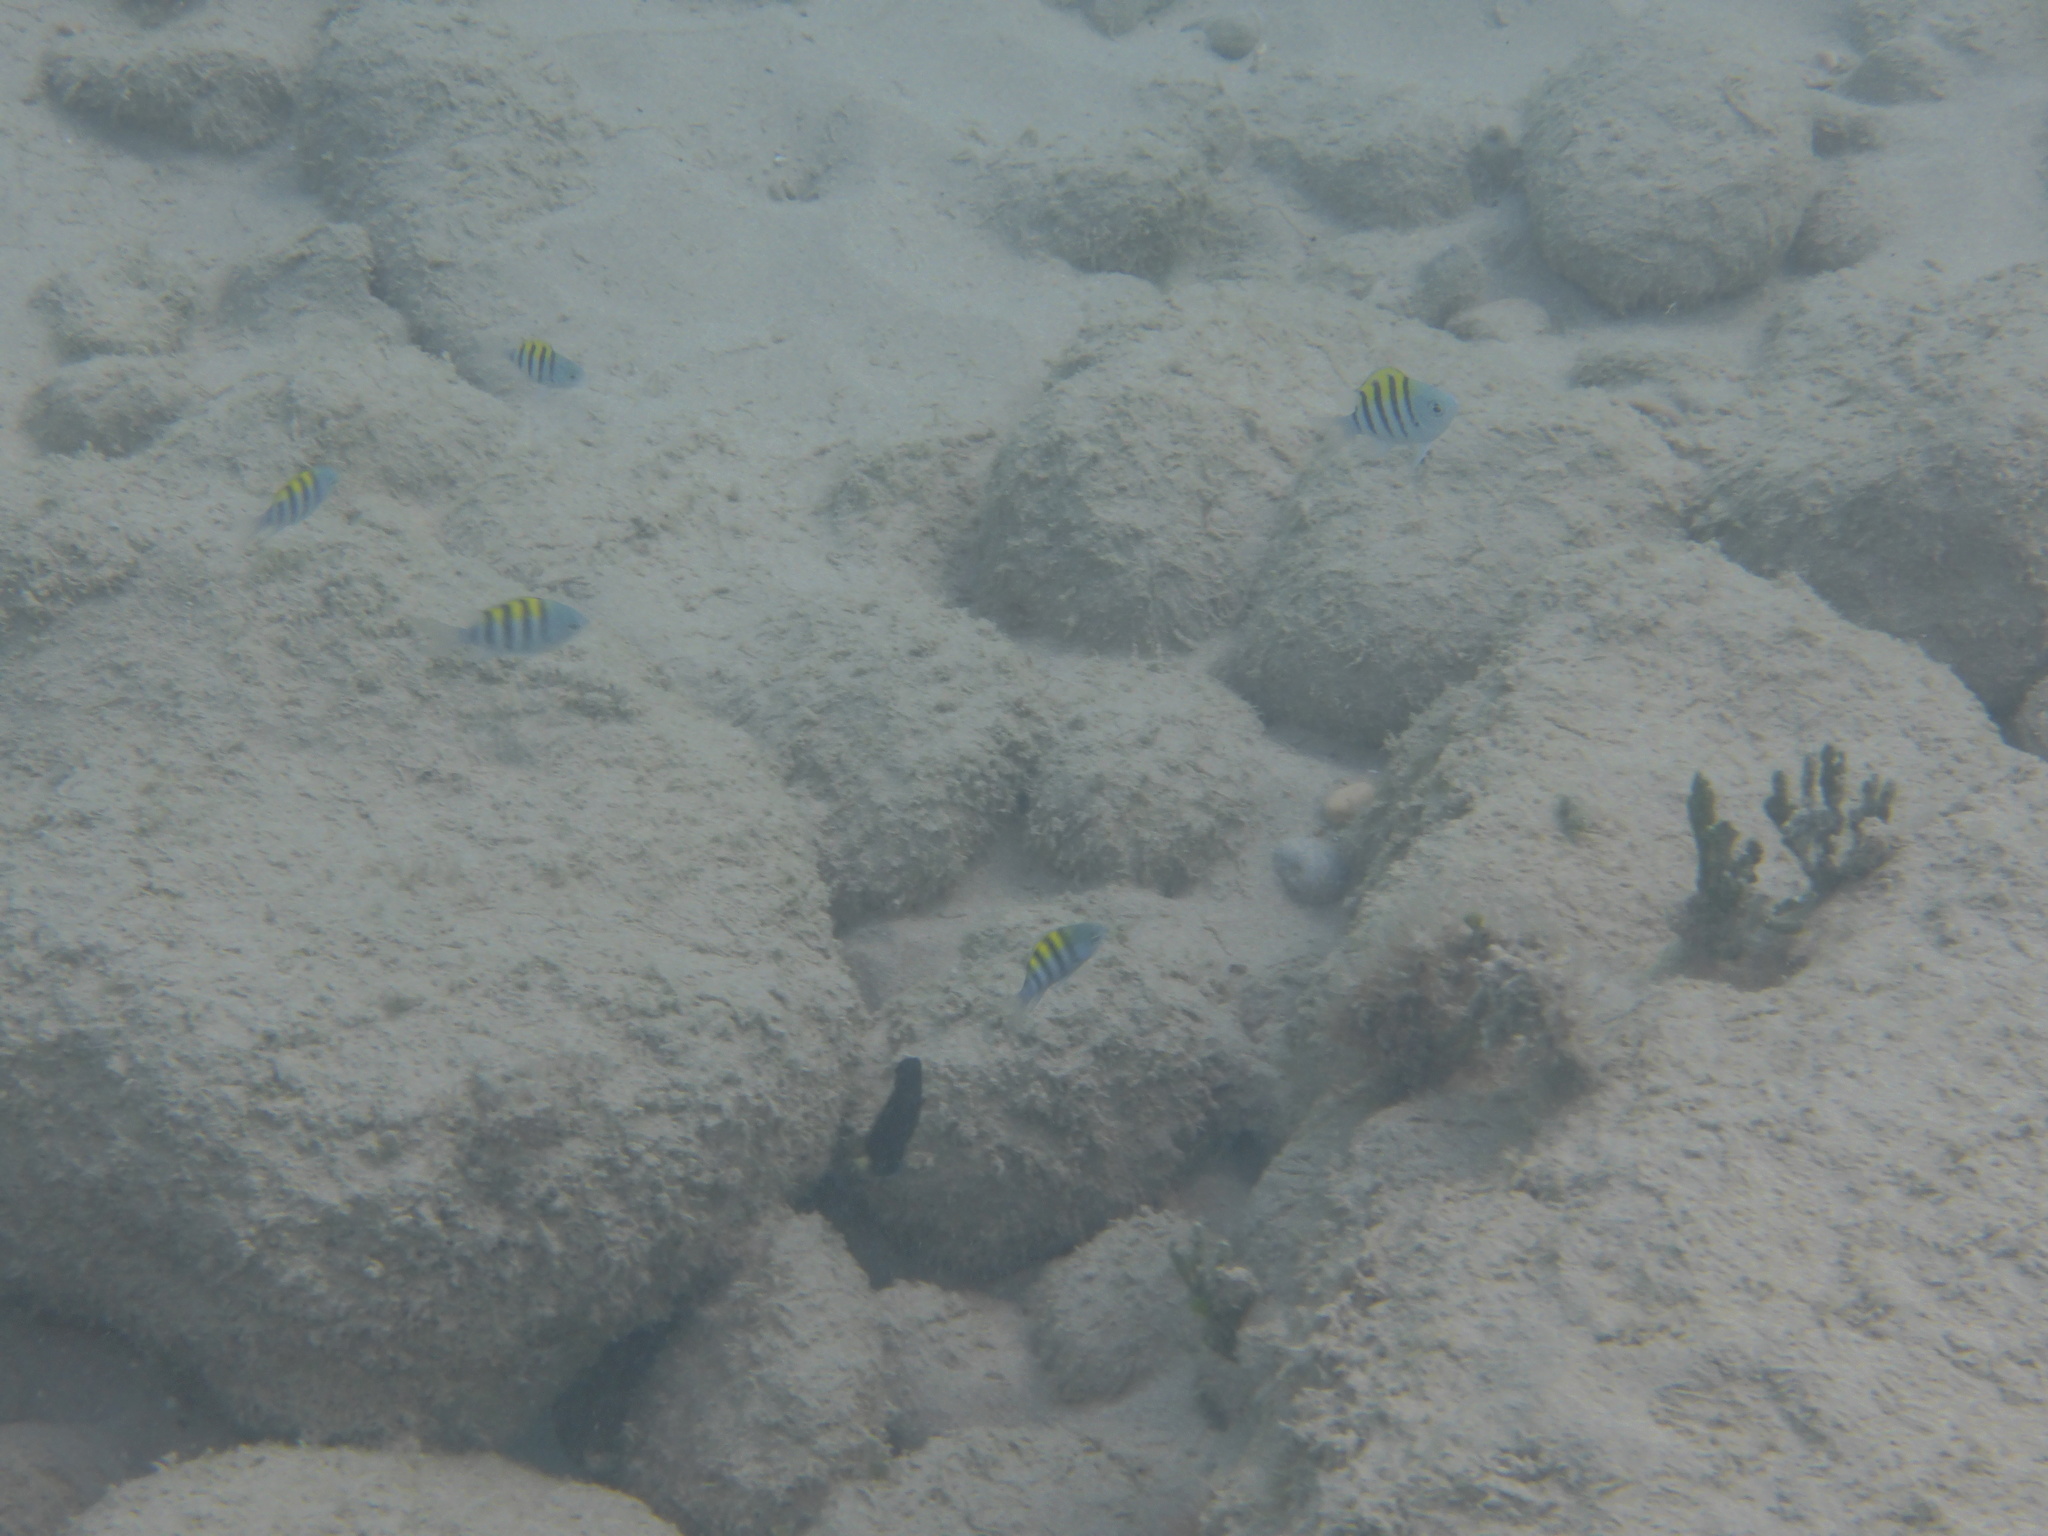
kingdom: Animalia
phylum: Chordata
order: Perciformes
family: Pomacentridae
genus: Abudefduf
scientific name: Abudefduf saxatilis
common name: Sergeant major
